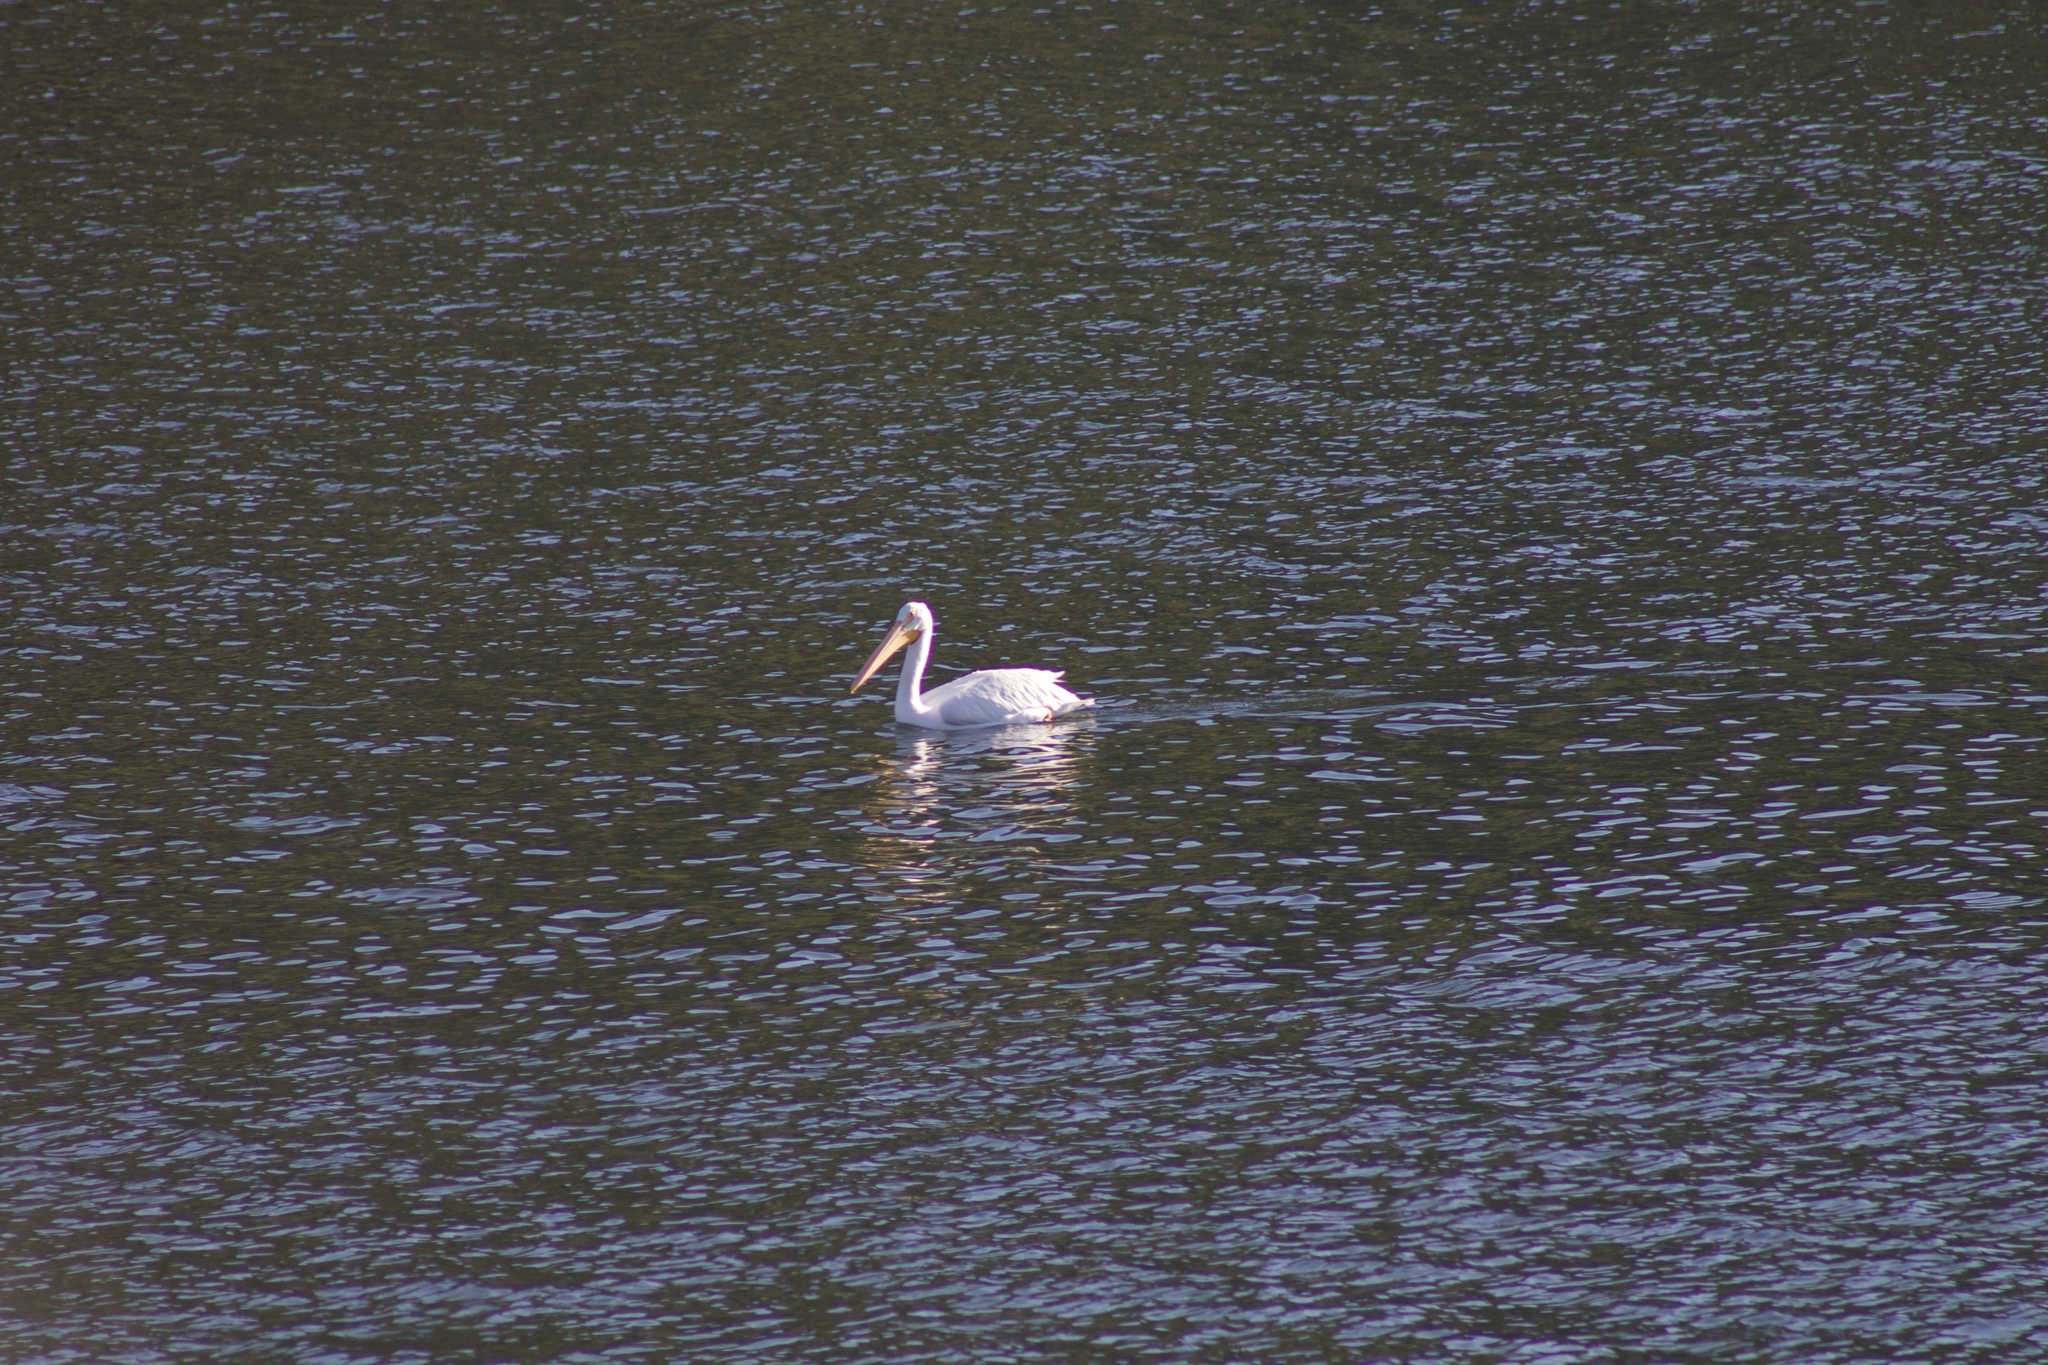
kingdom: Animalia
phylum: Chordata
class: Aves
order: Pelecaniformes
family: Pelecanidae
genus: Pelecanus
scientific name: Pelecanus erythrorhynchos
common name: American white pelican
